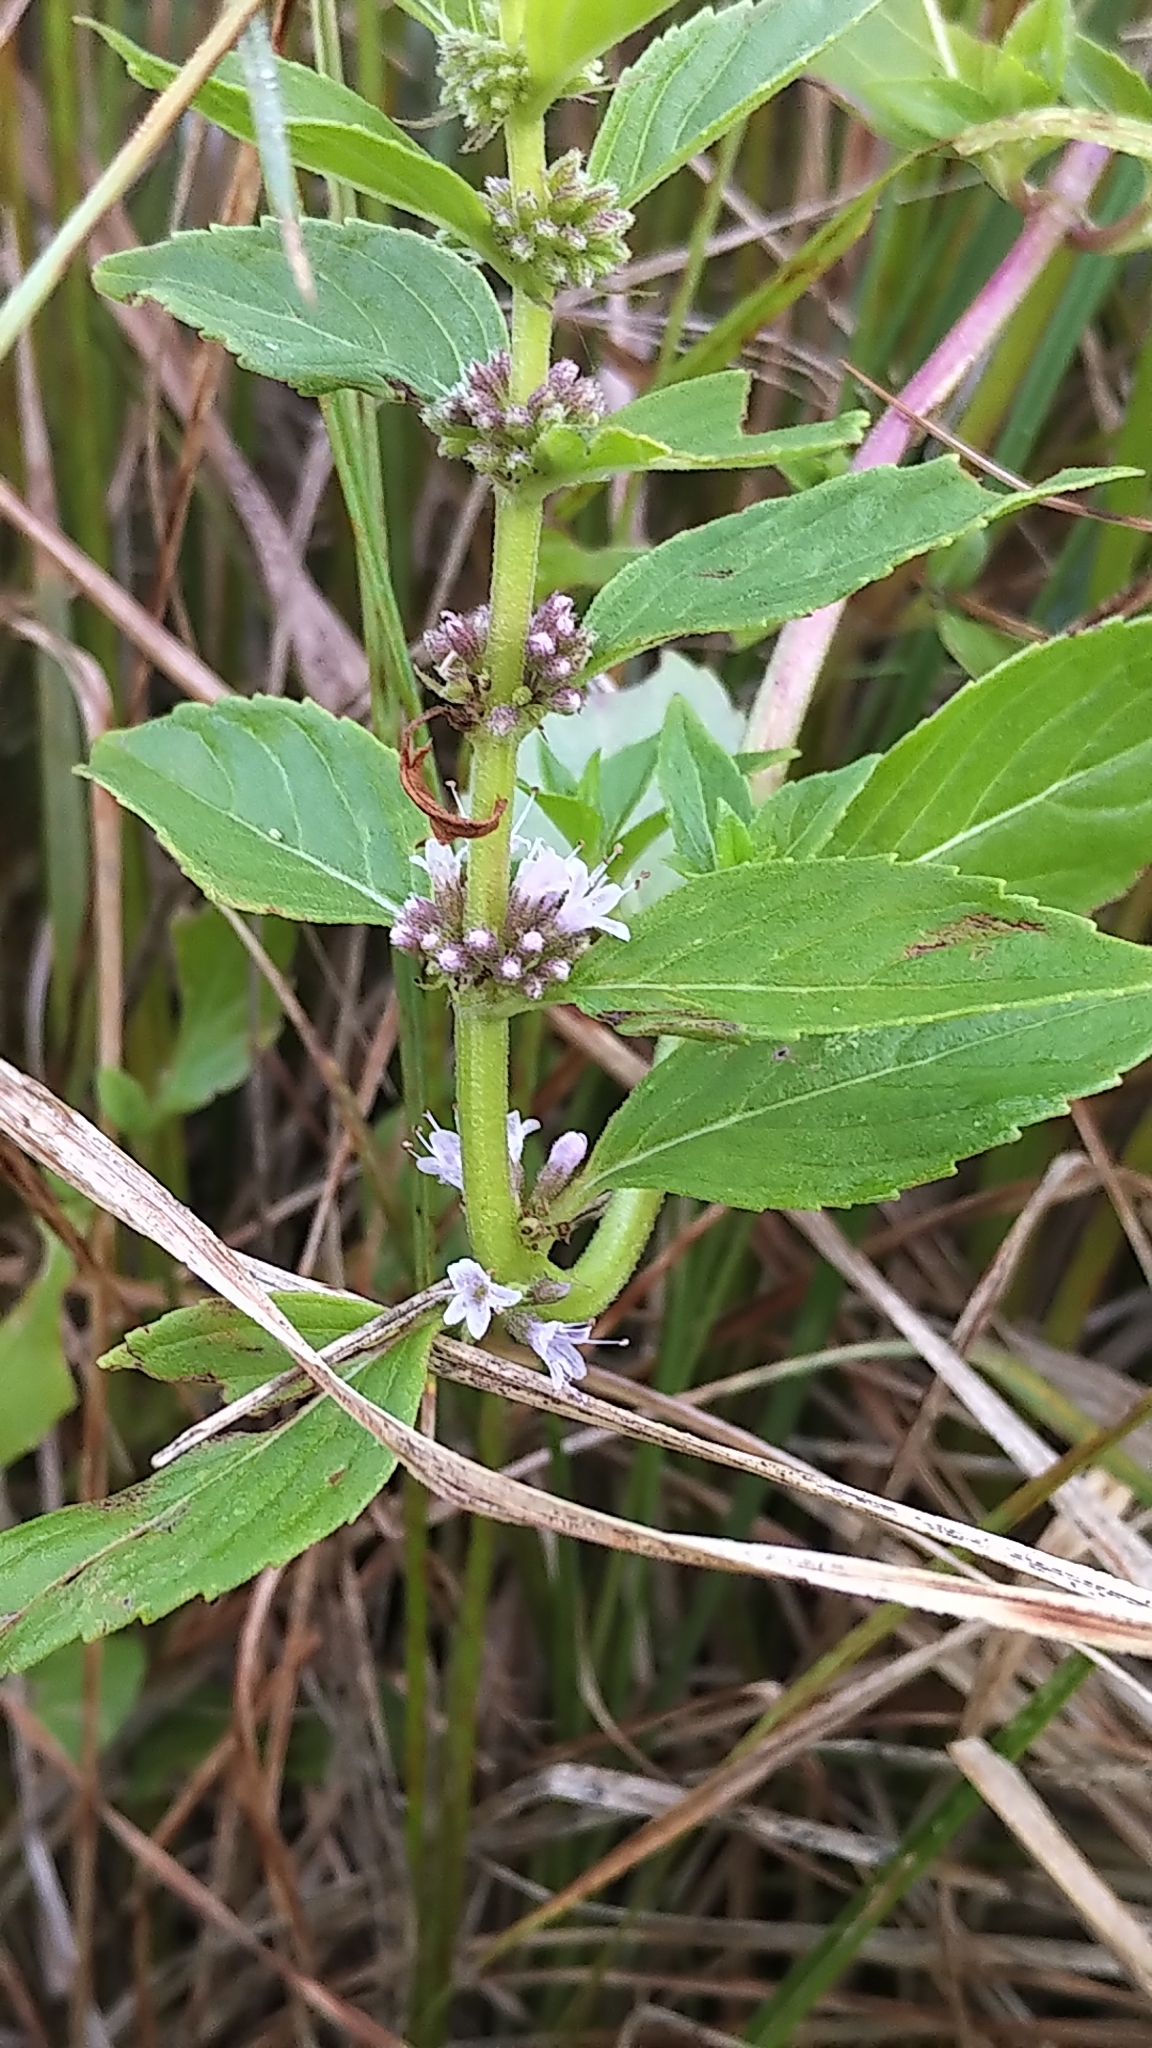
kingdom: Plantae
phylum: Tracheophyta
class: Magnoliopsida
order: Lamiales
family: Lamiaceae
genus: Mentha
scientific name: Mentha canadensis
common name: American corn mint
